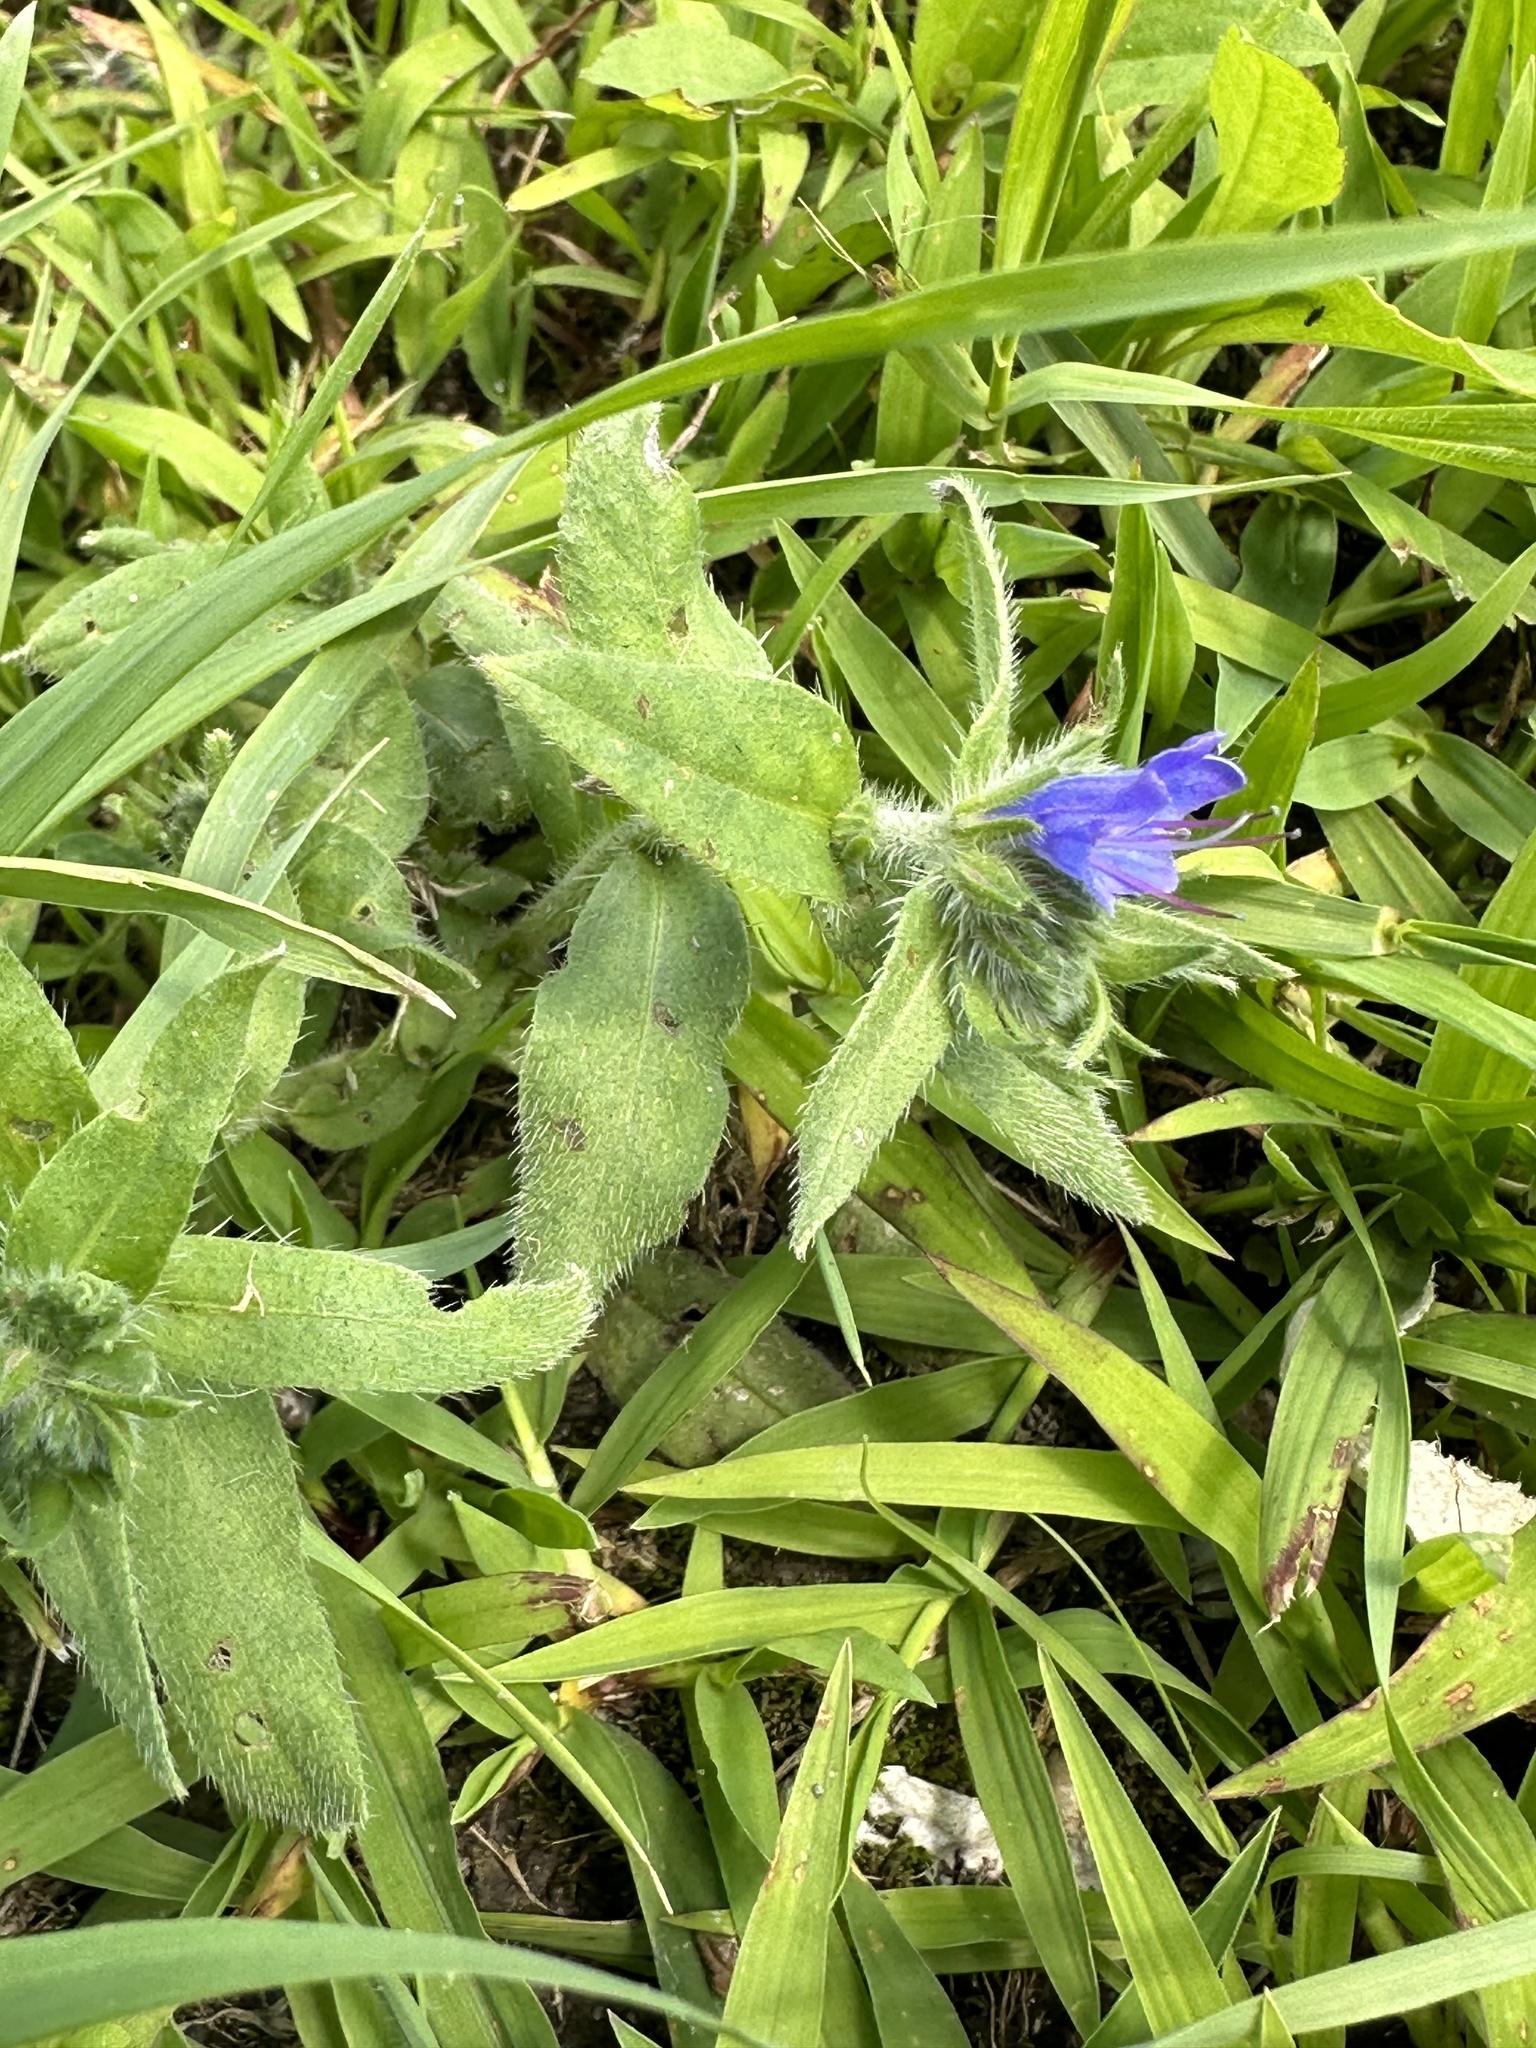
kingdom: Plantae
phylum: Tracheophyta
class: Magnoliopsida
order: Boraginales
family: Boraginaceae
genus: Echium
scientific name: Echium vulgare
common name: Common viper's bugloss
